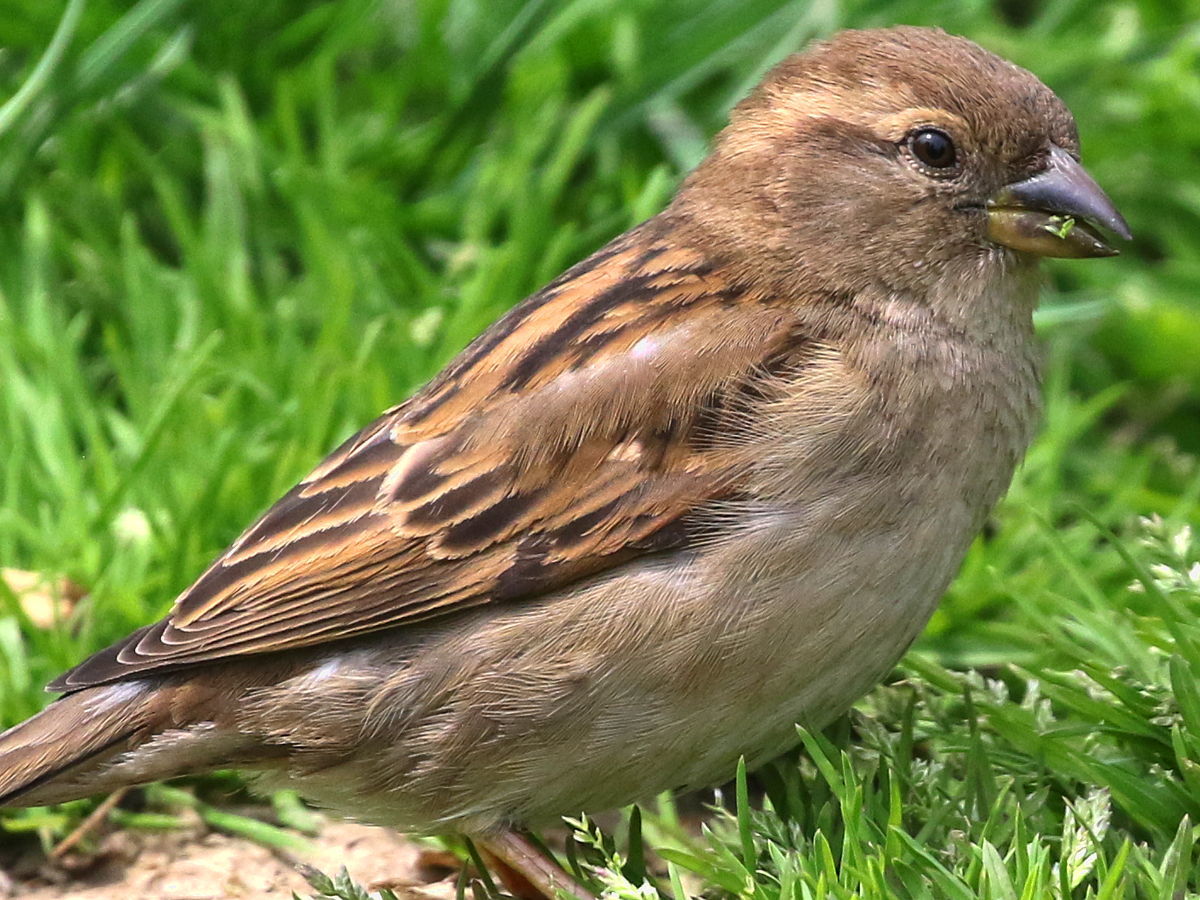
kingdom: Animalia
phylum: Chordata
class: Aves
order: Passeriformes
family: Passeridae
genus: Passer
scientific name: Passer domesticus
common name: House sparrow
